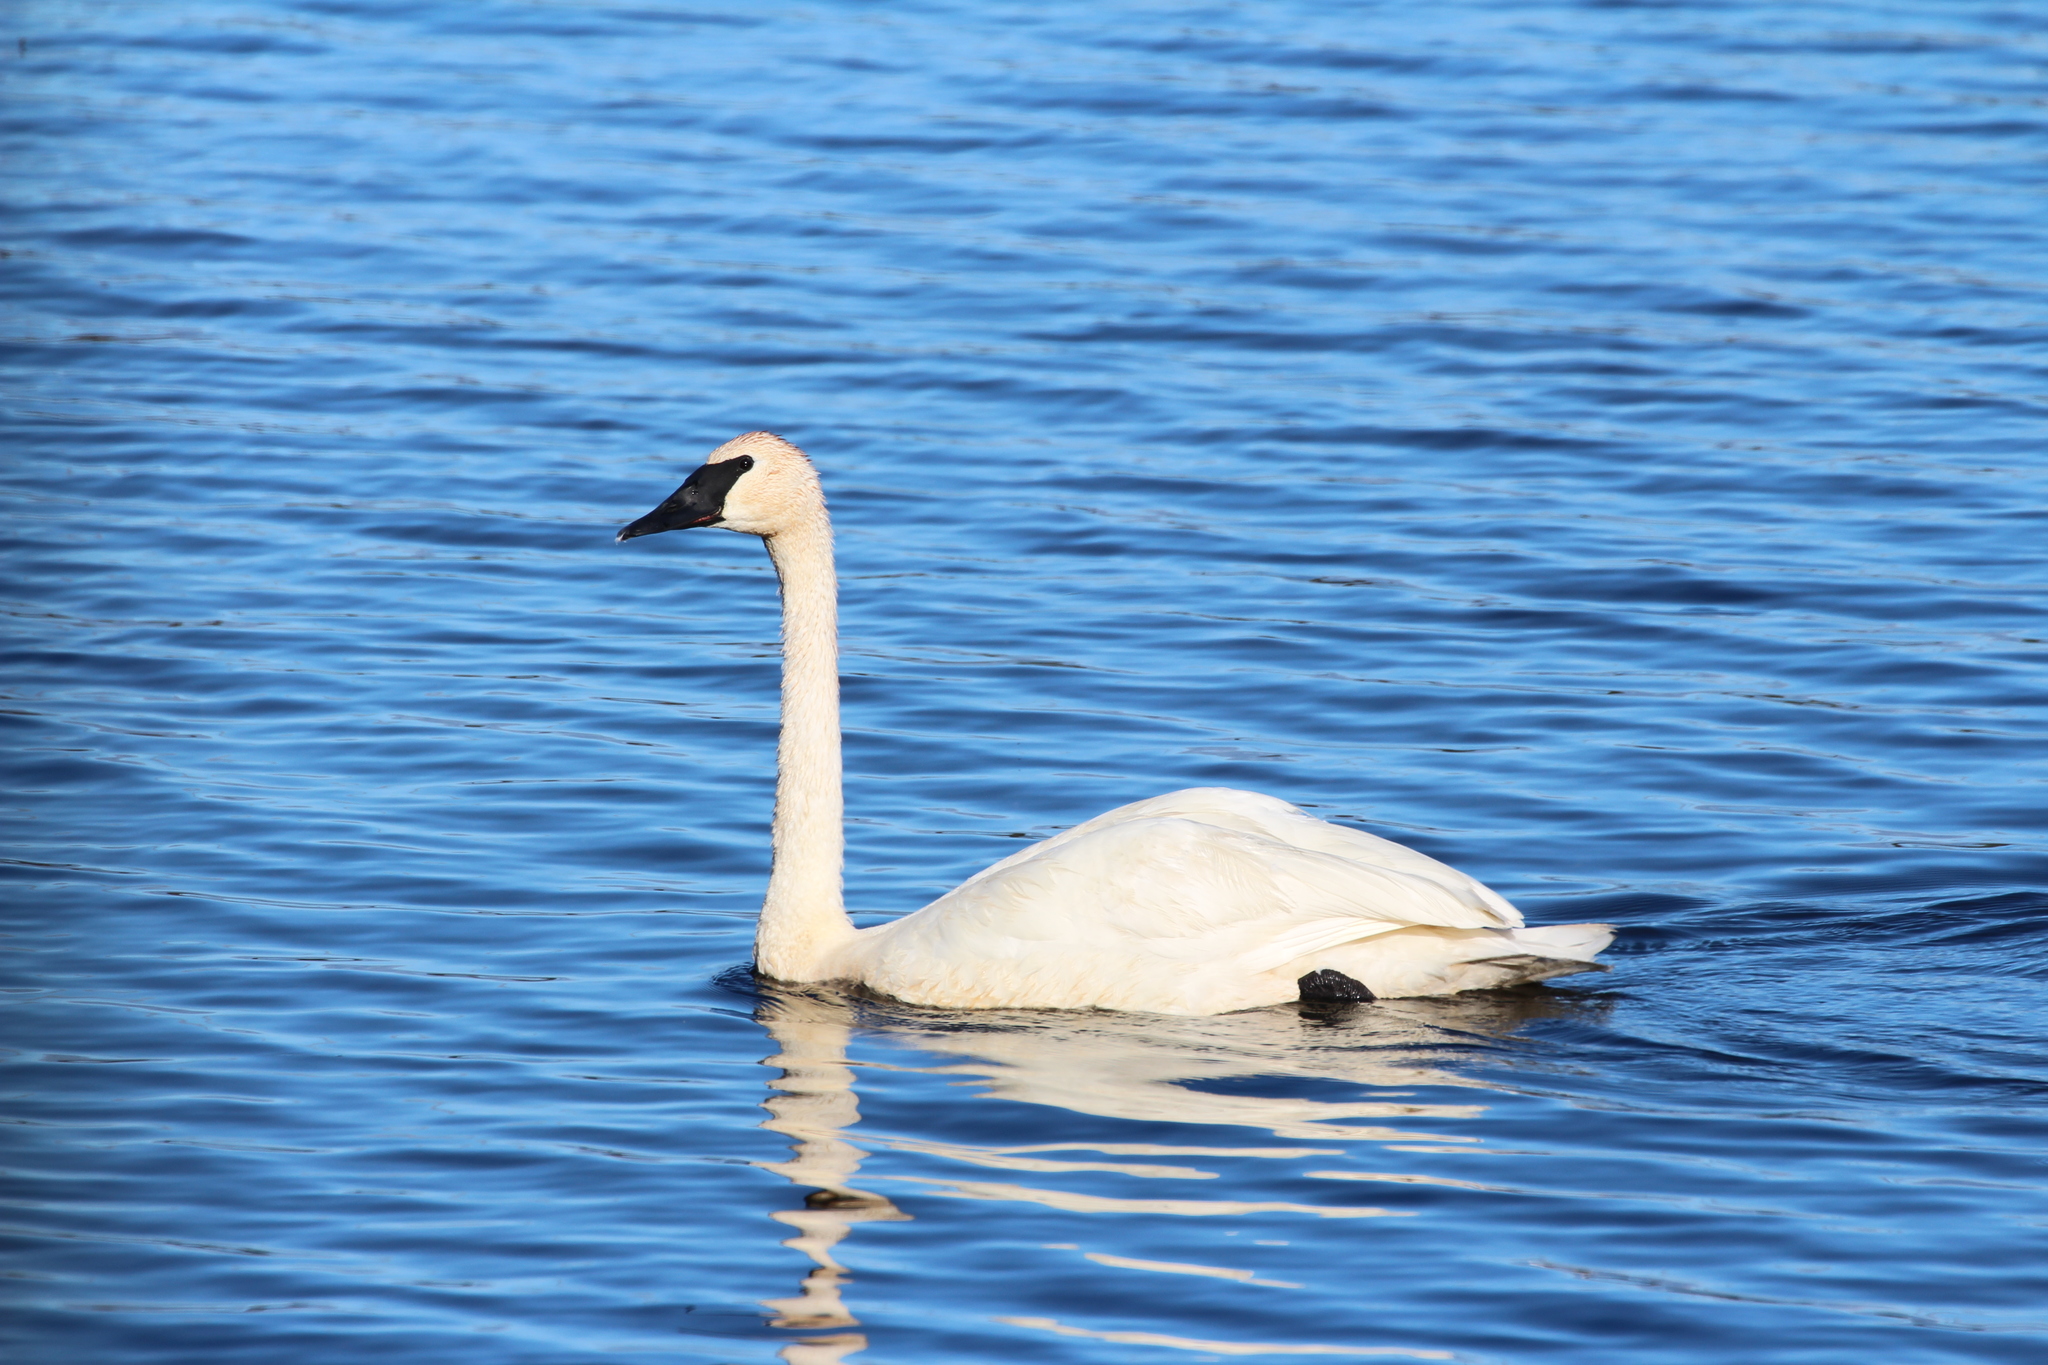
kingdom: Animalia
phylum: Chordata
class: Aves
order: Anseriformes
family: Anatidae
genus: Cygnus
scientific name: Cygnus buccinator
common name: Trumpeter swan
